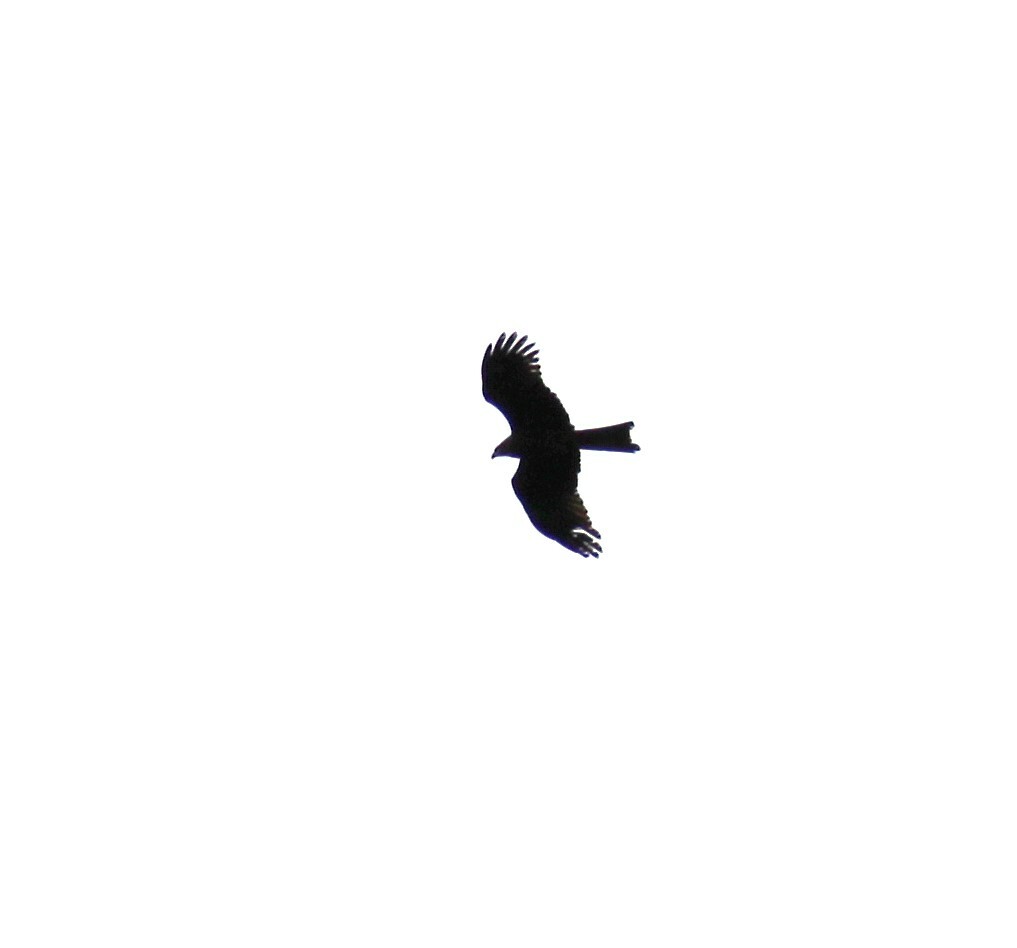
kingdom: Animalia
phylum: Chordata
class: Aves
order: Accipitriformes
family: Accipitridae
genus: Milvus
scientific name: Milvus migrans
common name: Black kite
